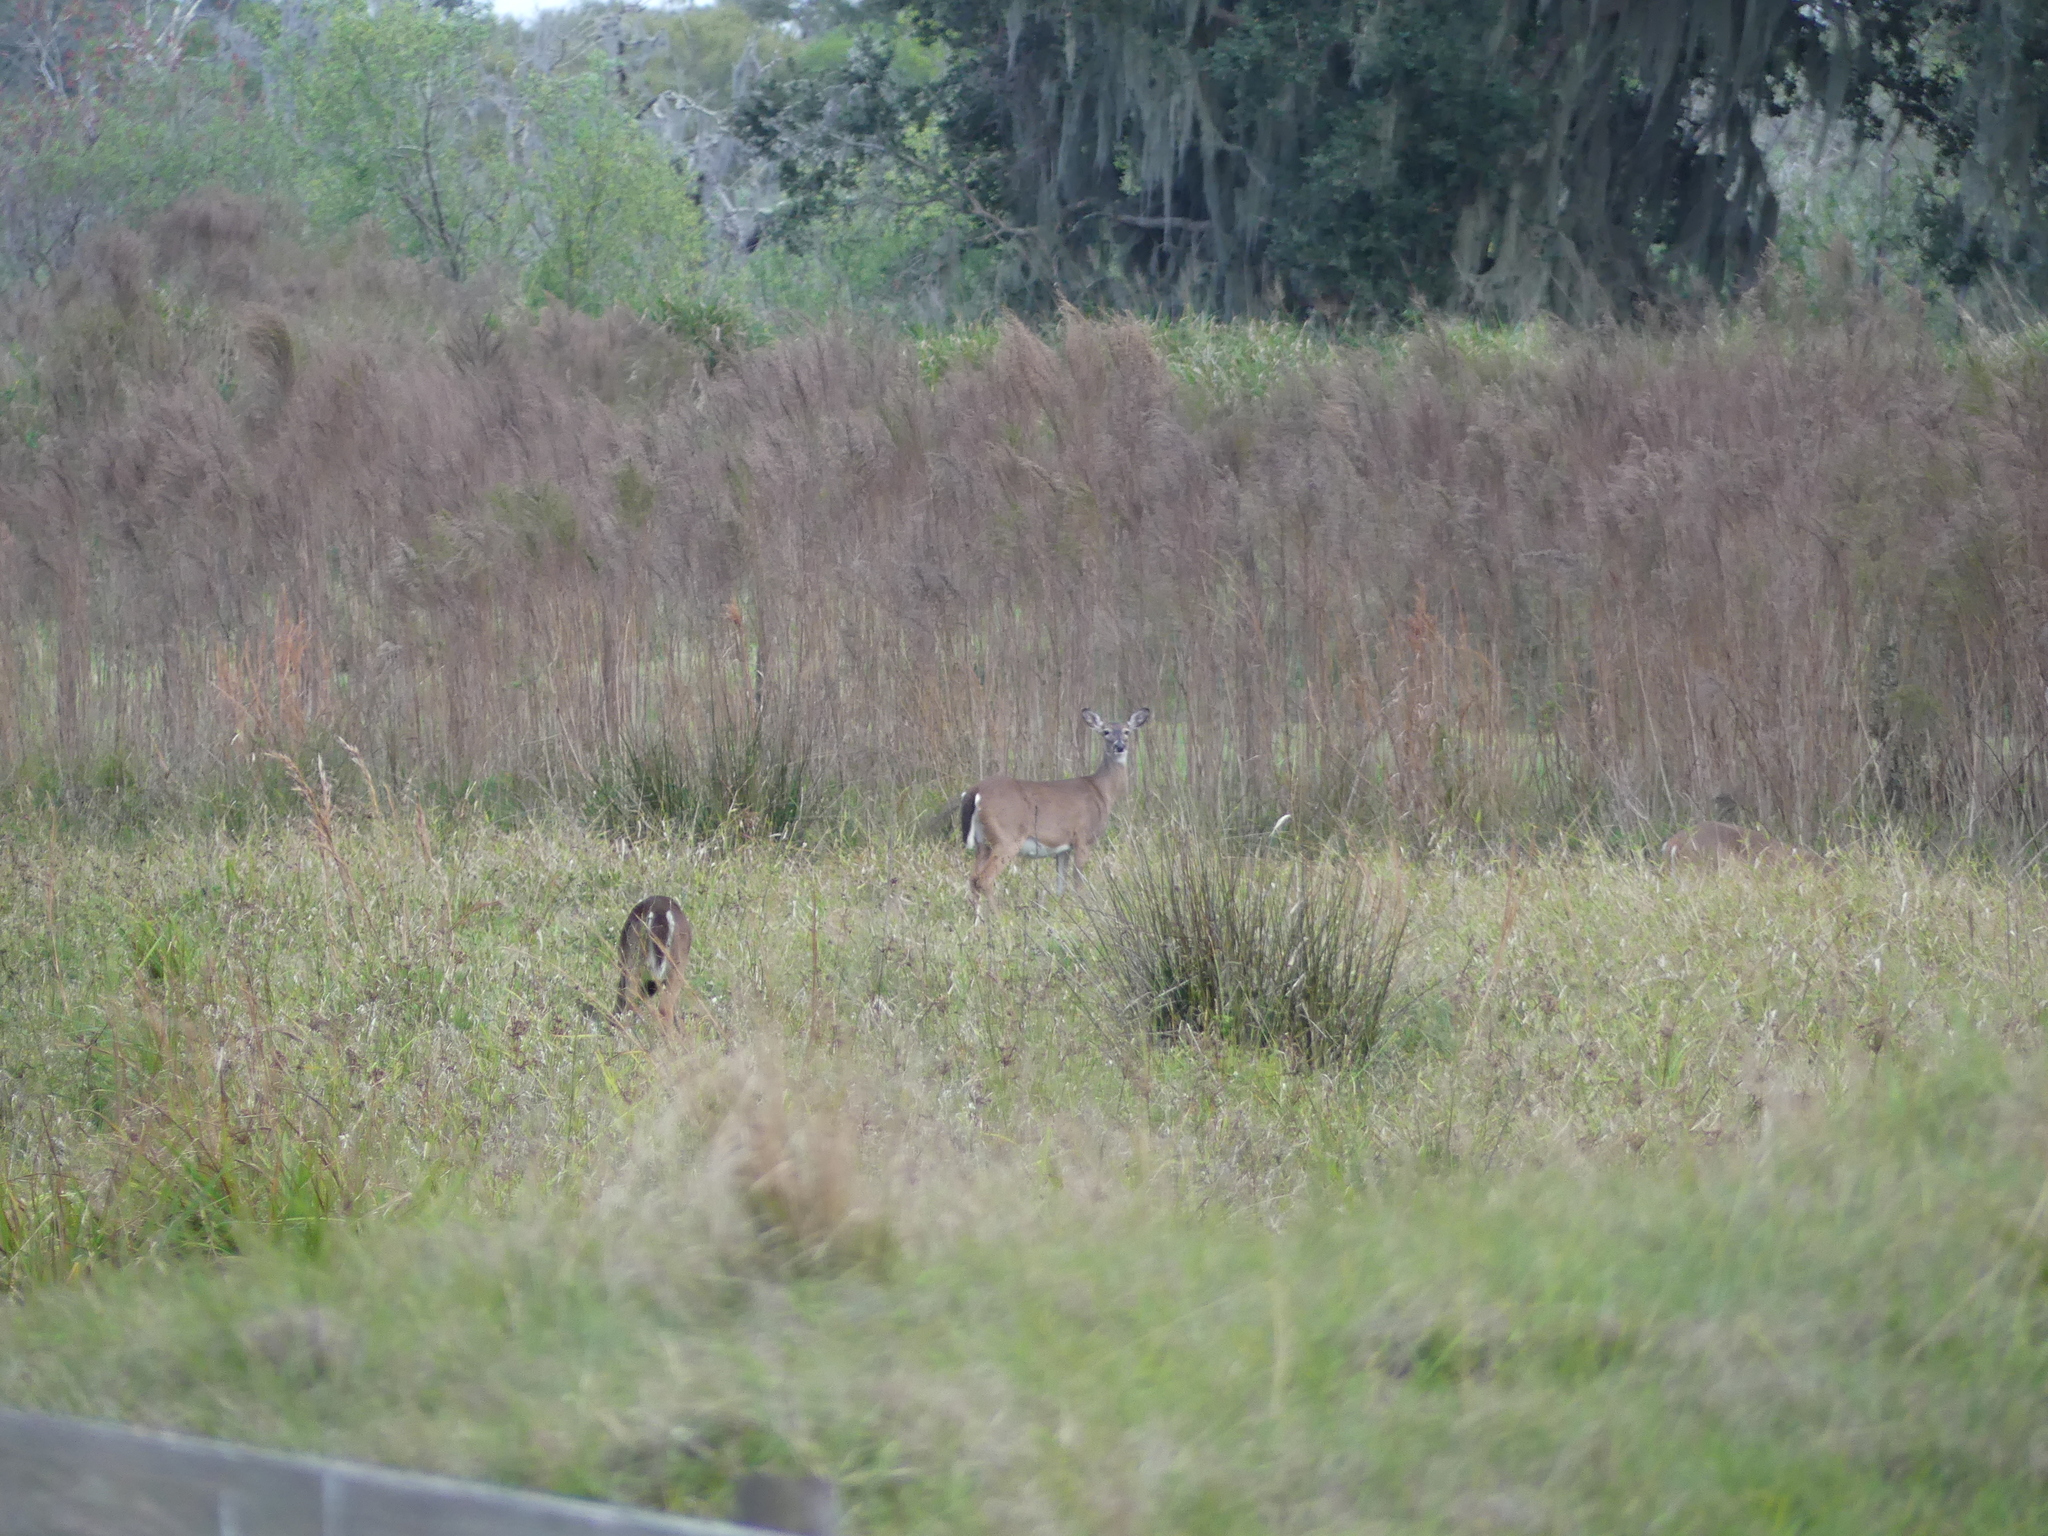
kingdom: Animalia
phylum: Chordata
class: Mammalia
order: Artiodactyla
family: Cervidae
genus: Odocoileus
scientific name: Odocoileus virginianus
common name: White-tailed deer
